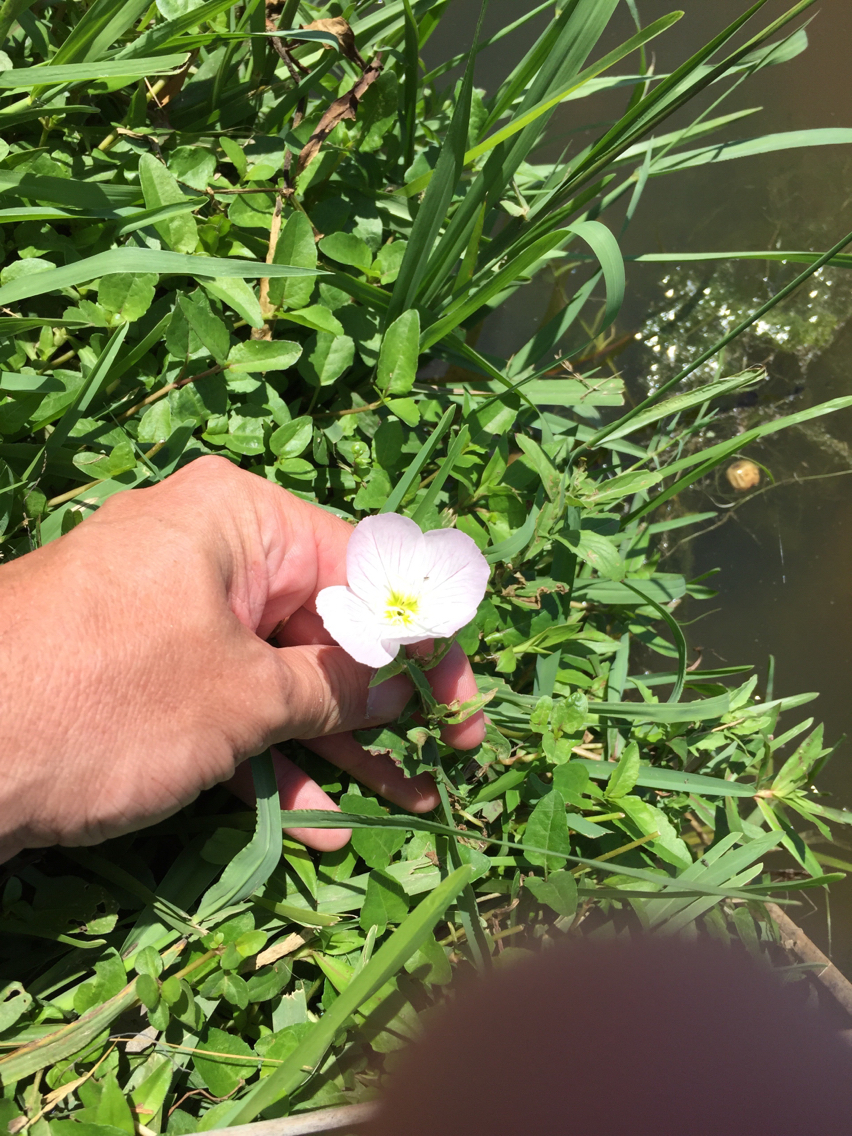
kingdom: Plantae
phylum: Tracheophyta
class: Magnoliopsida
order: Myrtales
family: Onagraceae
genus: Oenothera
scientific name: Oenothera speciosa
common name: White evening-primrose
